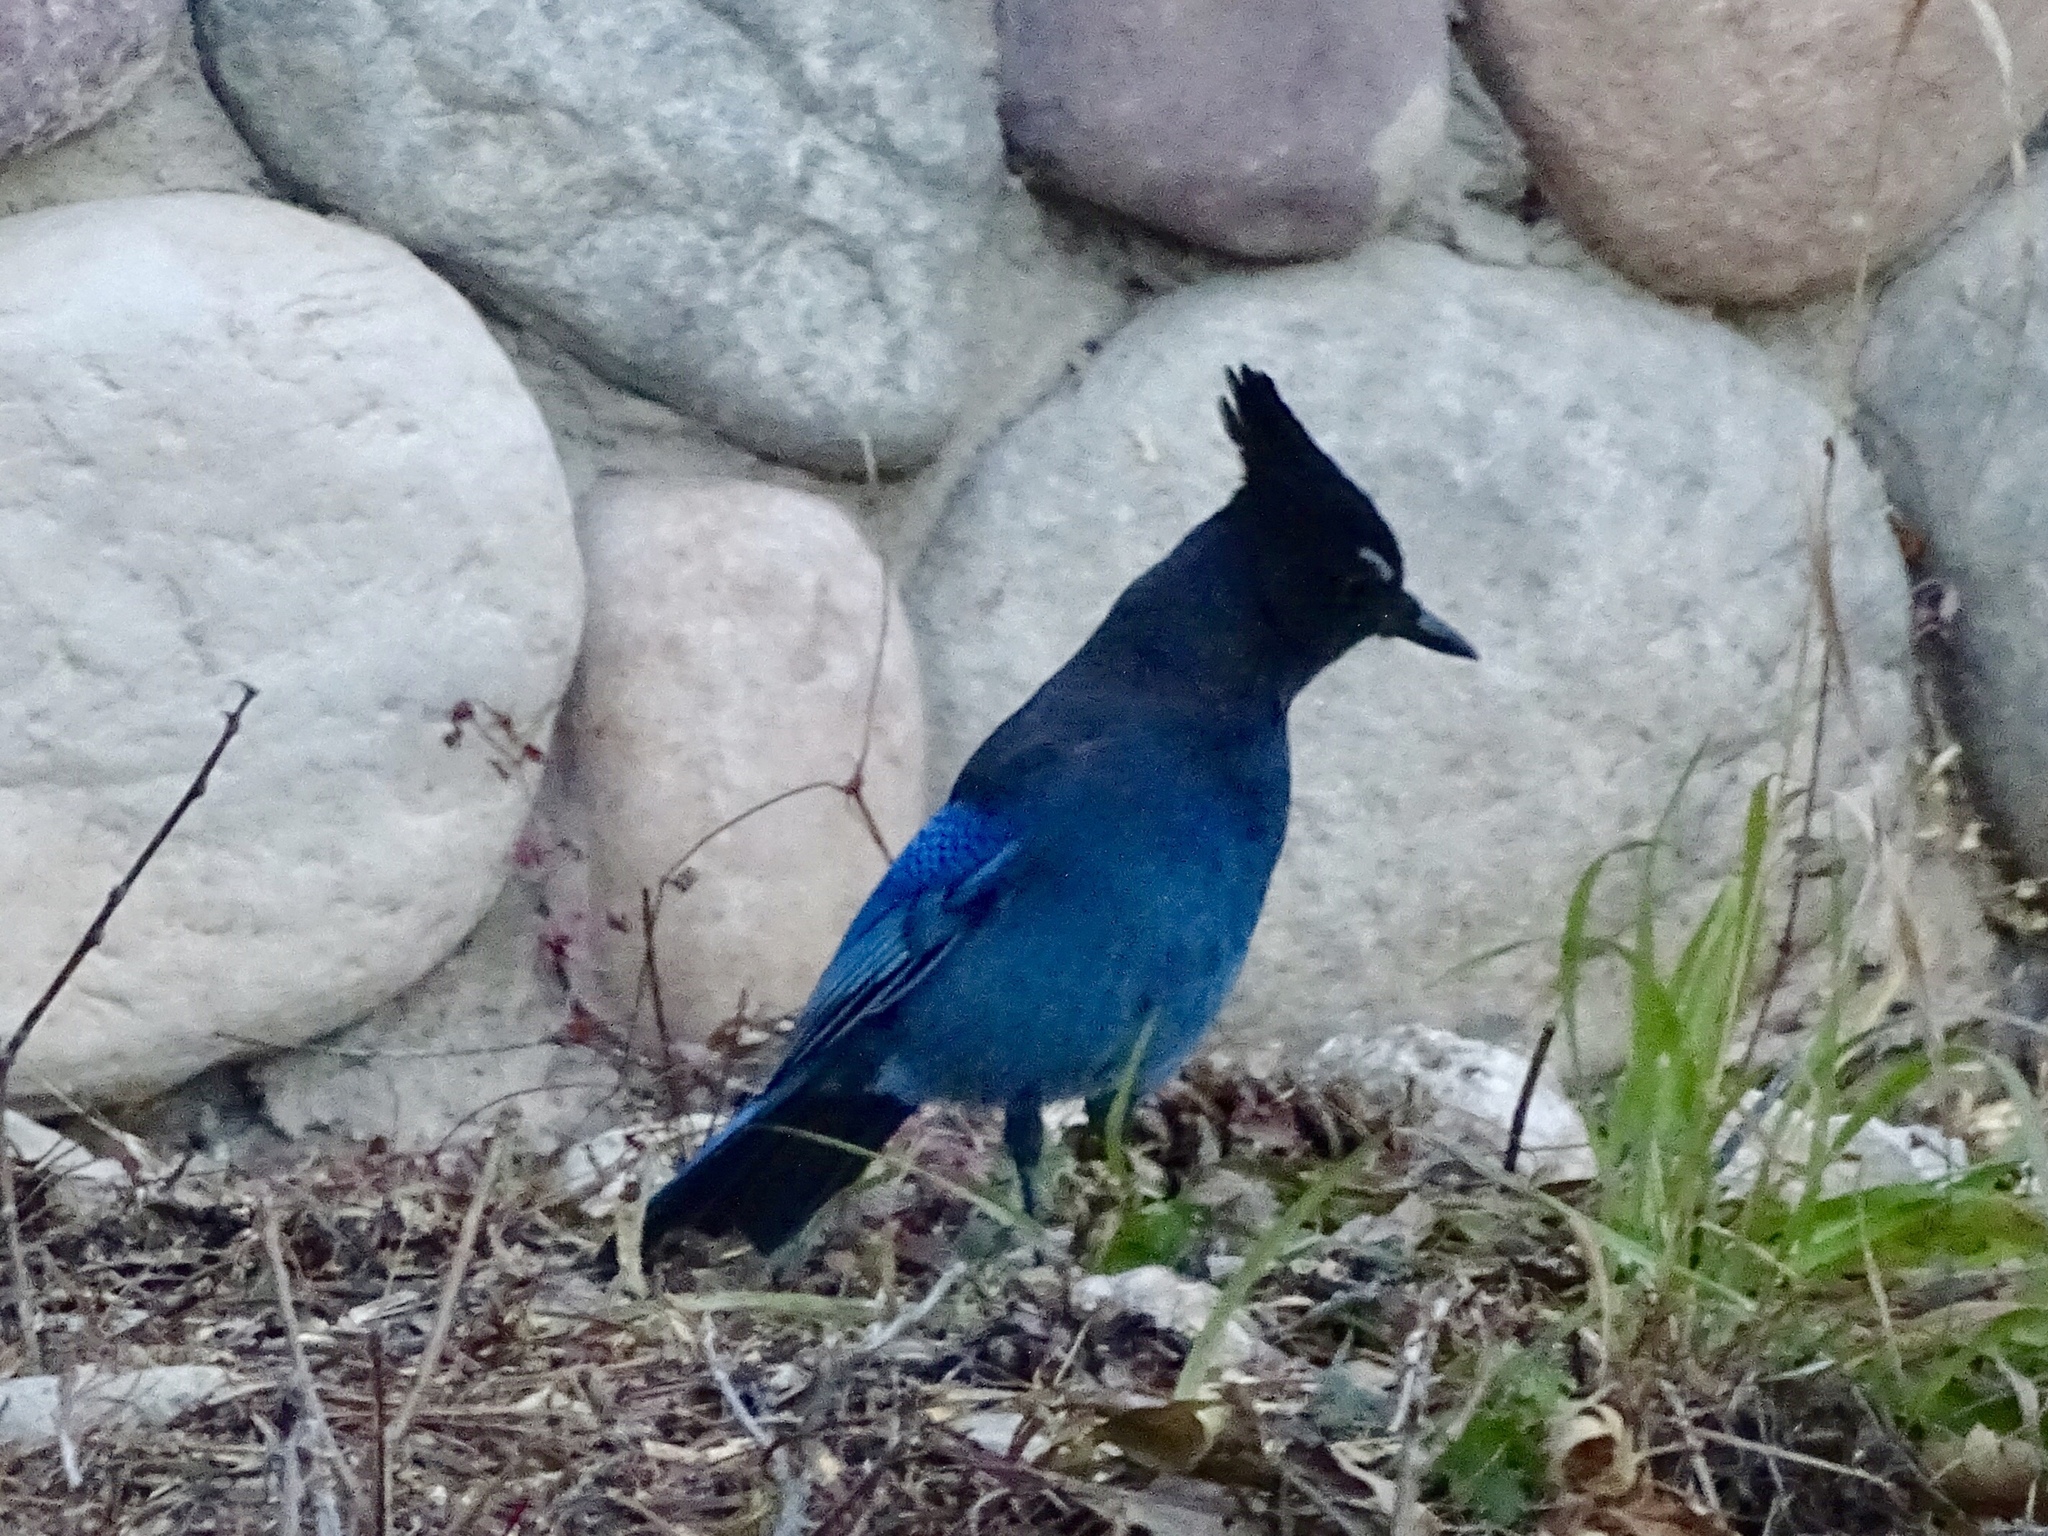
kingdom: Animalia
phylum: Chordata
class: Aves
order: Passeriformes
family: Corvidae
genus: Cyanocitta
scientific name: Cyanocitta stelleri
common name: Steller's jay
